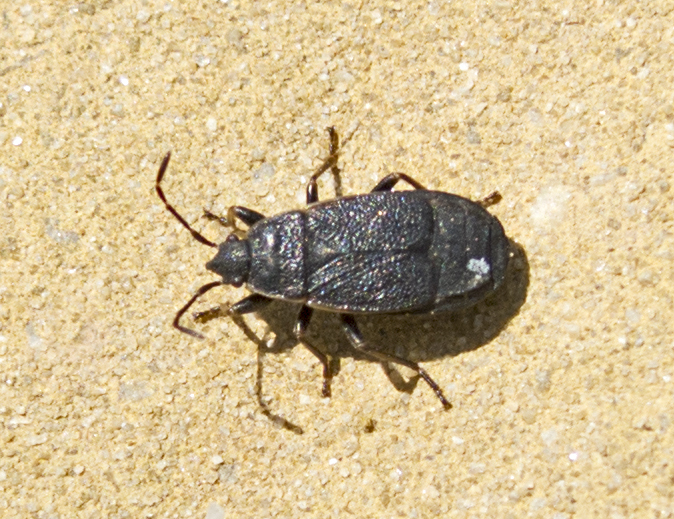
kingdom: Animalia
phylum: Arthropoda
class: Insecta
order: Hemiptera
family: Pyrrhocoridae
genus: Pyrrhocoris
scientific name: Pyrrhocoris marginatus
